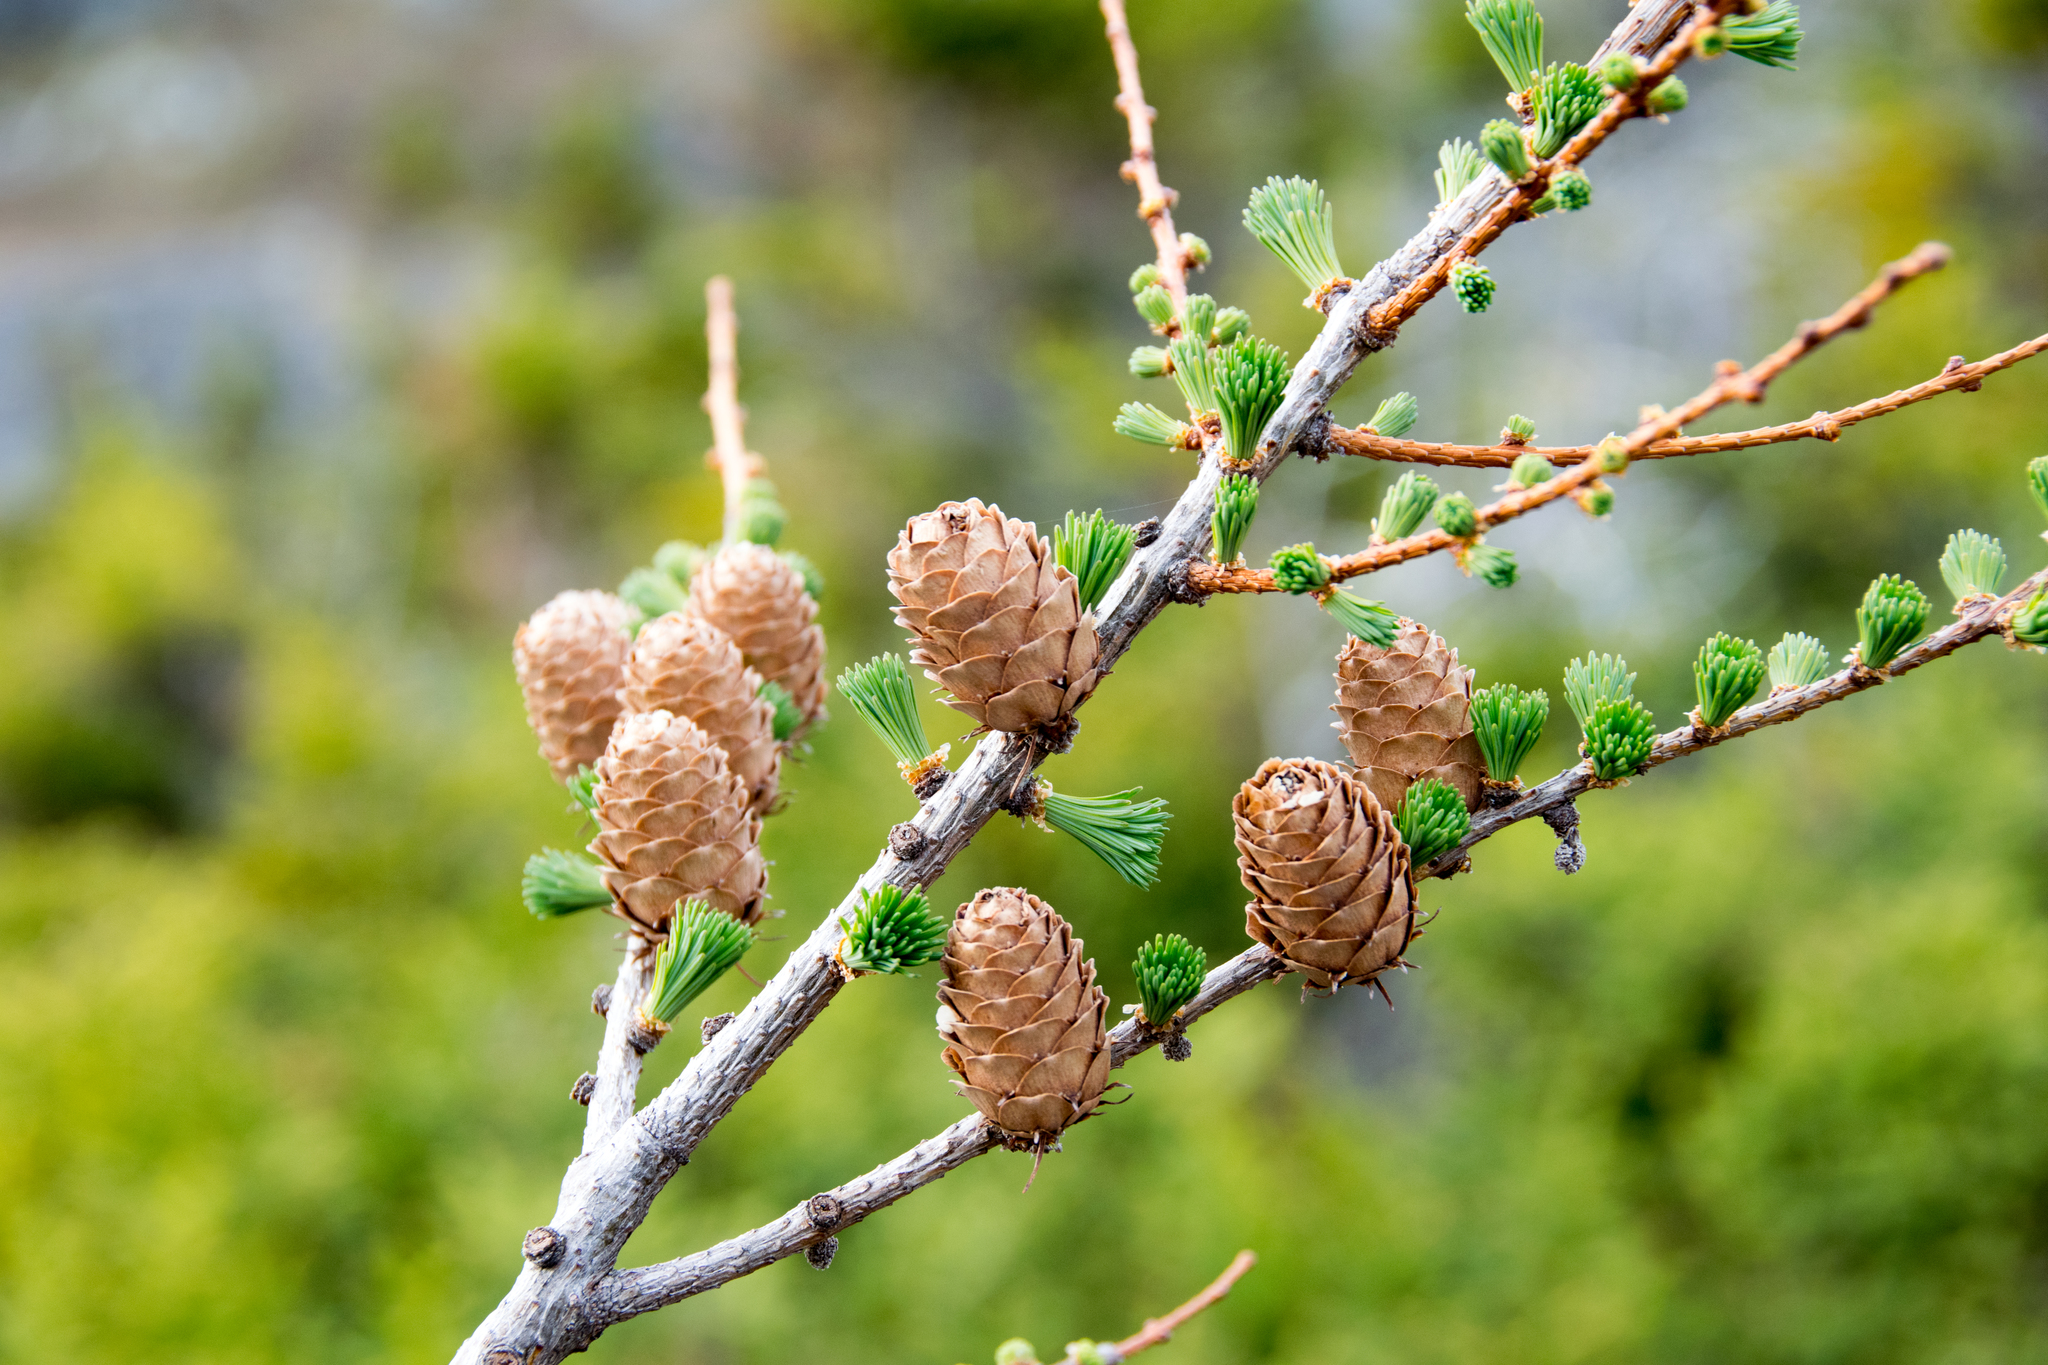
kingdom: Plantae
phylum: Tracheophyta
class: Pinopsida
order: Pinales
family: Pinaceae
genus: Larix
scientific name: Larix laricina
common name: American larch
